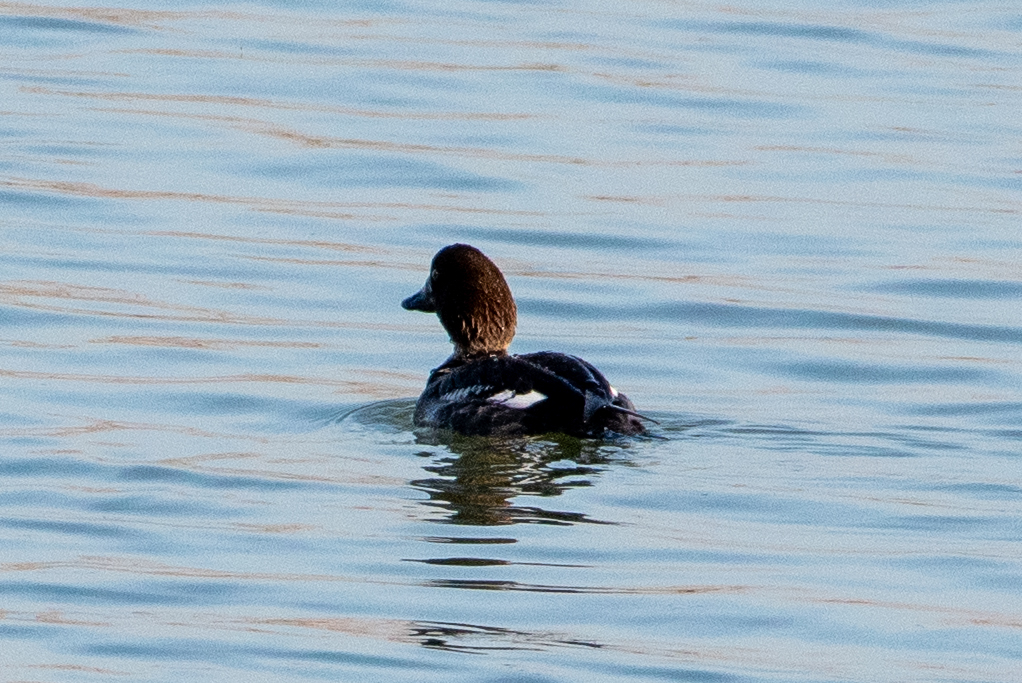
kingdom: Animalia
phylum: Chordata
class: Aves
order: Anseriformes
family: Anatidae
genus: Bucephala
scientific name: Bucephala clangula
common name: Common goldeneye
